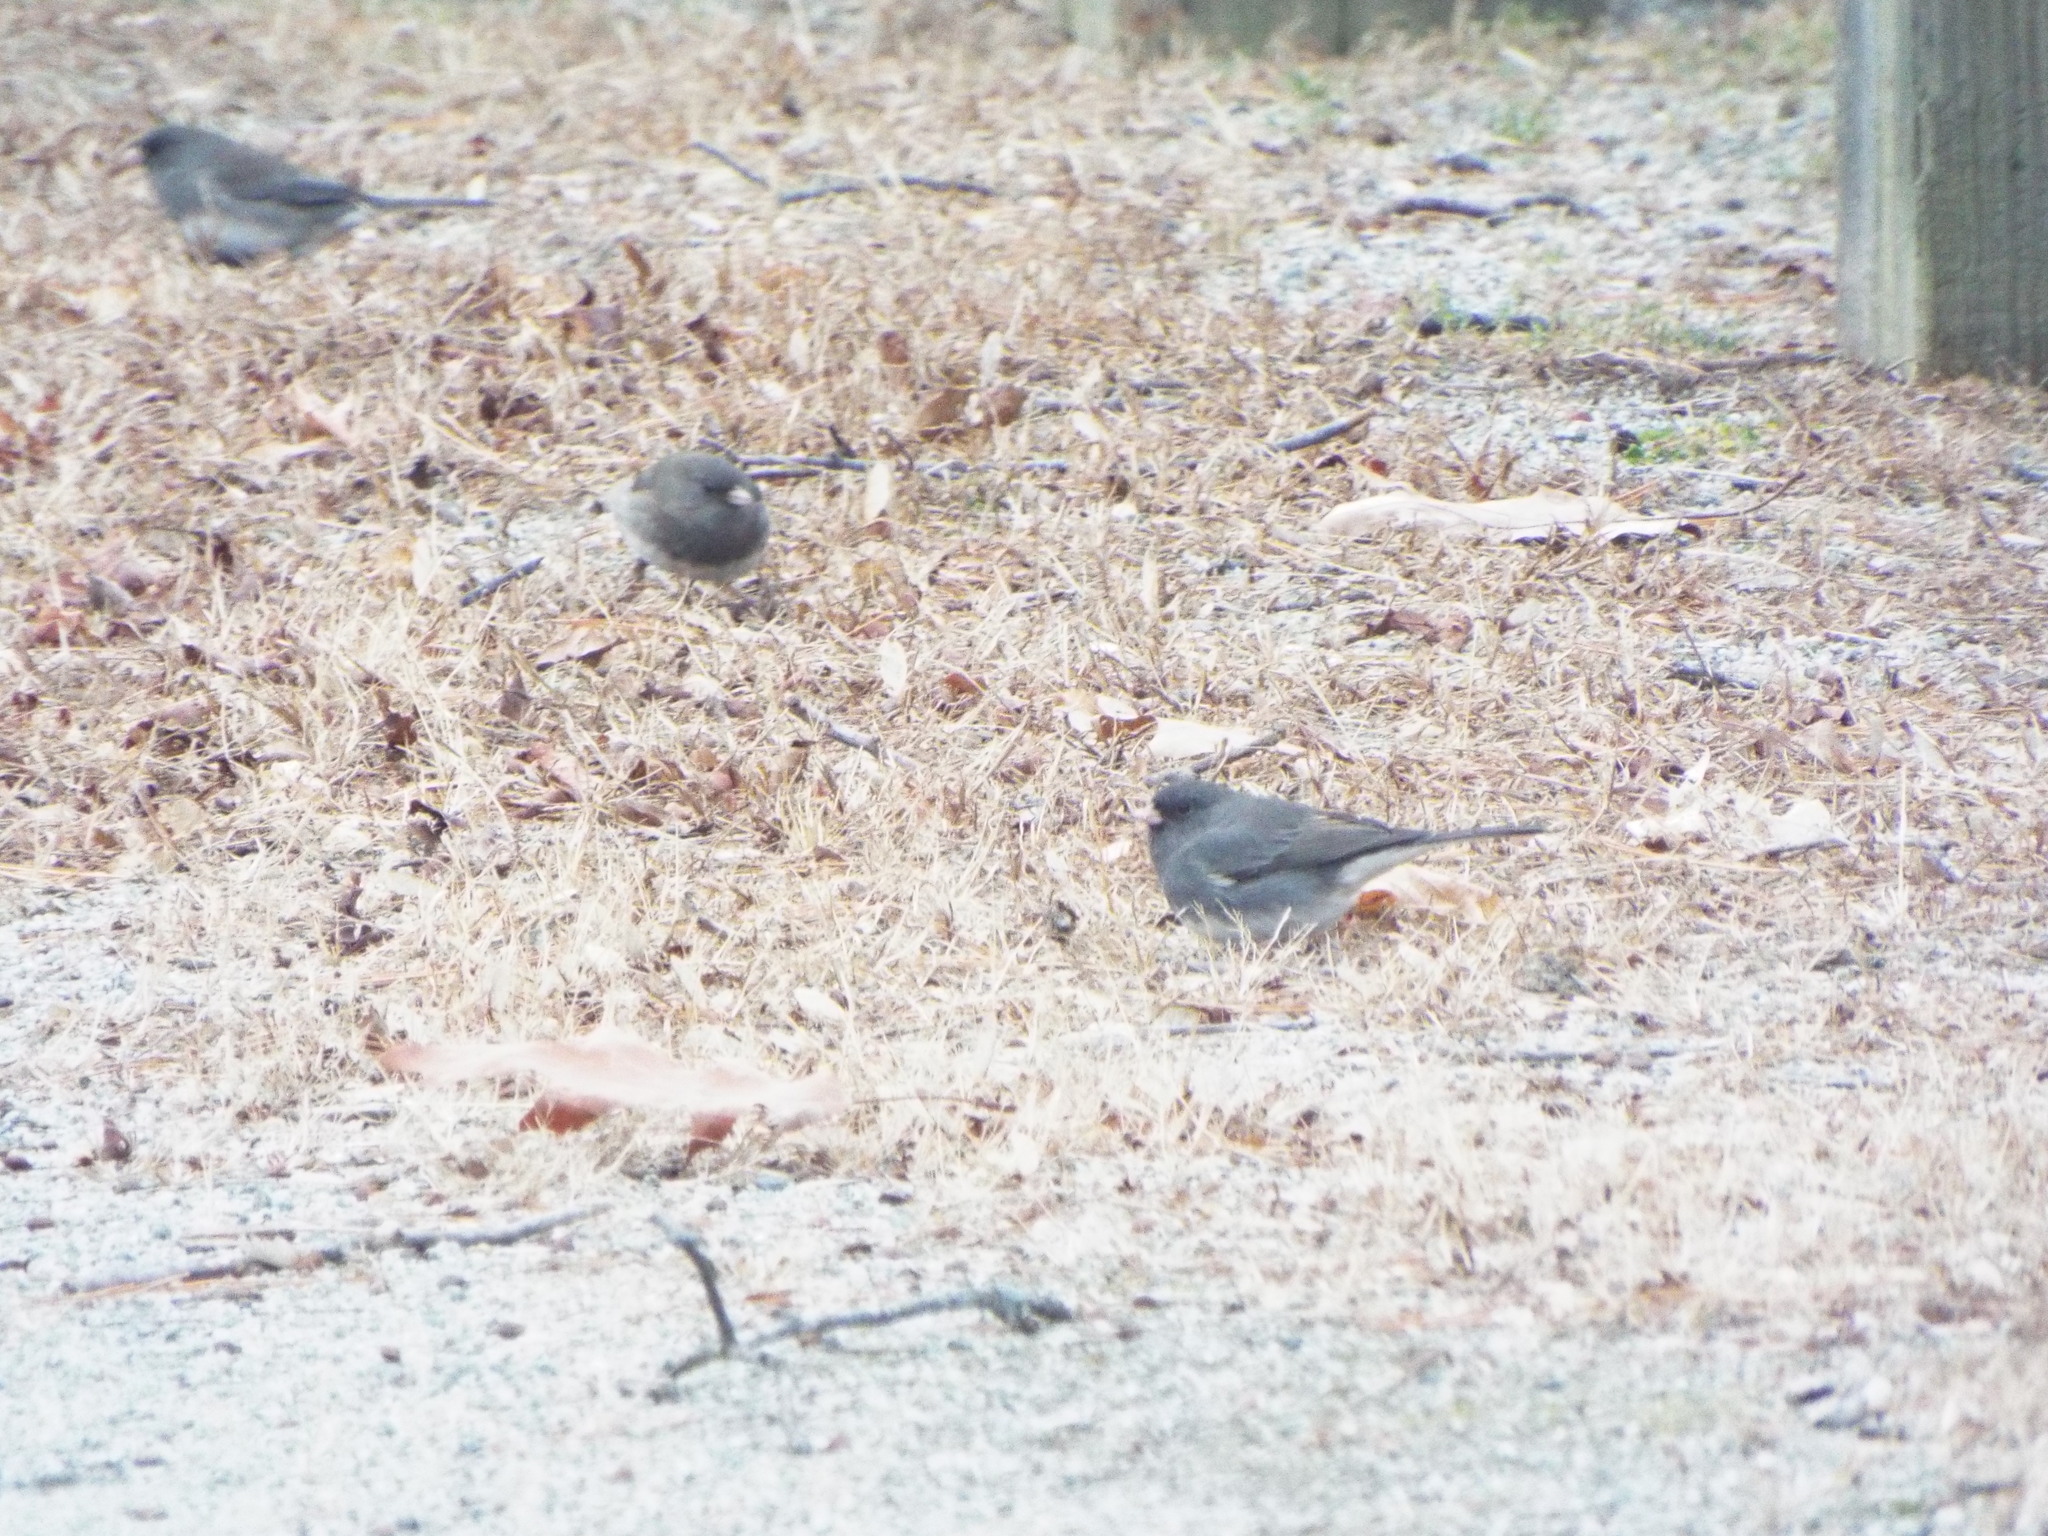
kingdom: Animalia
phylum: Chordata
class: Aves
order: Passeriformes
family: Passerellidae
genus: Junco
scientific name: Junco hyemalis
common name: Dark-eyed junco
